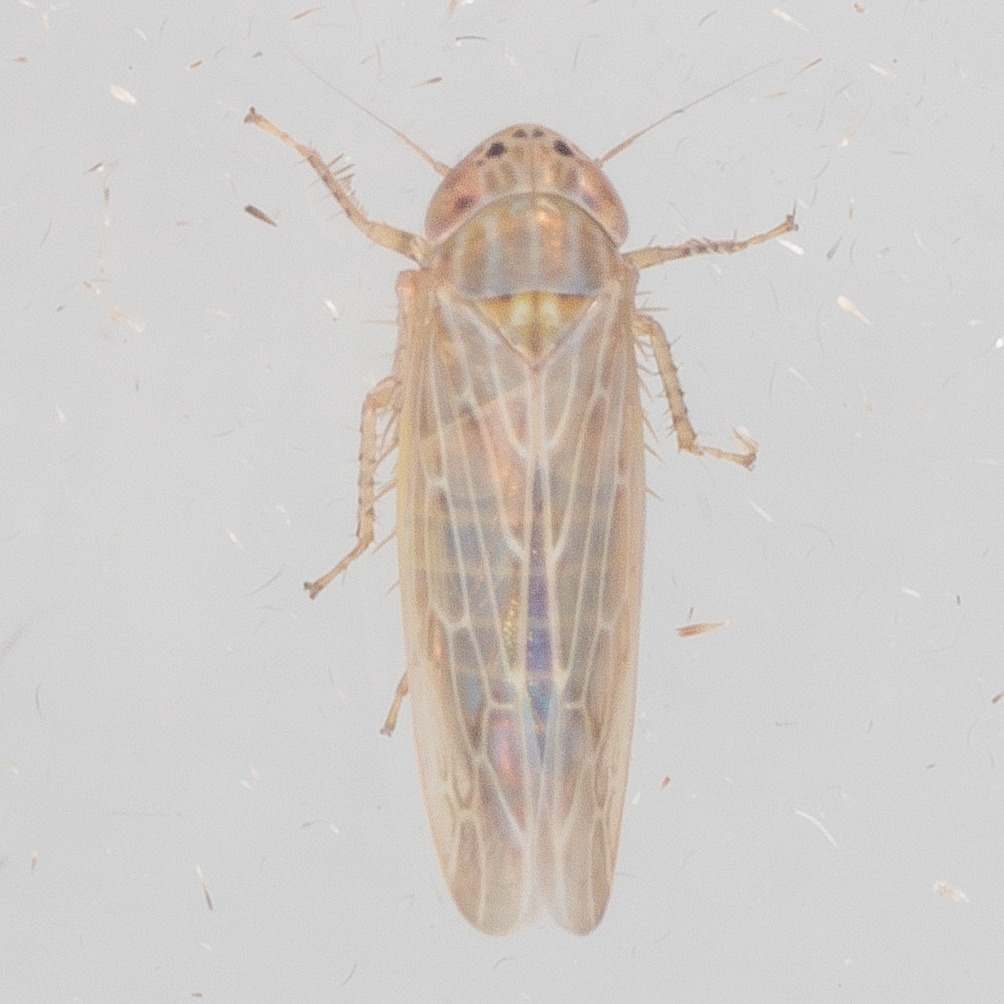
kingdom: Animalia
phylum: Arthropoda
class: Insecta
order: Hemiptera
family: Cicadellidae
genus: Graminella
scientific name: Graminella sonora
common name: Lesser lawn leafhopper
